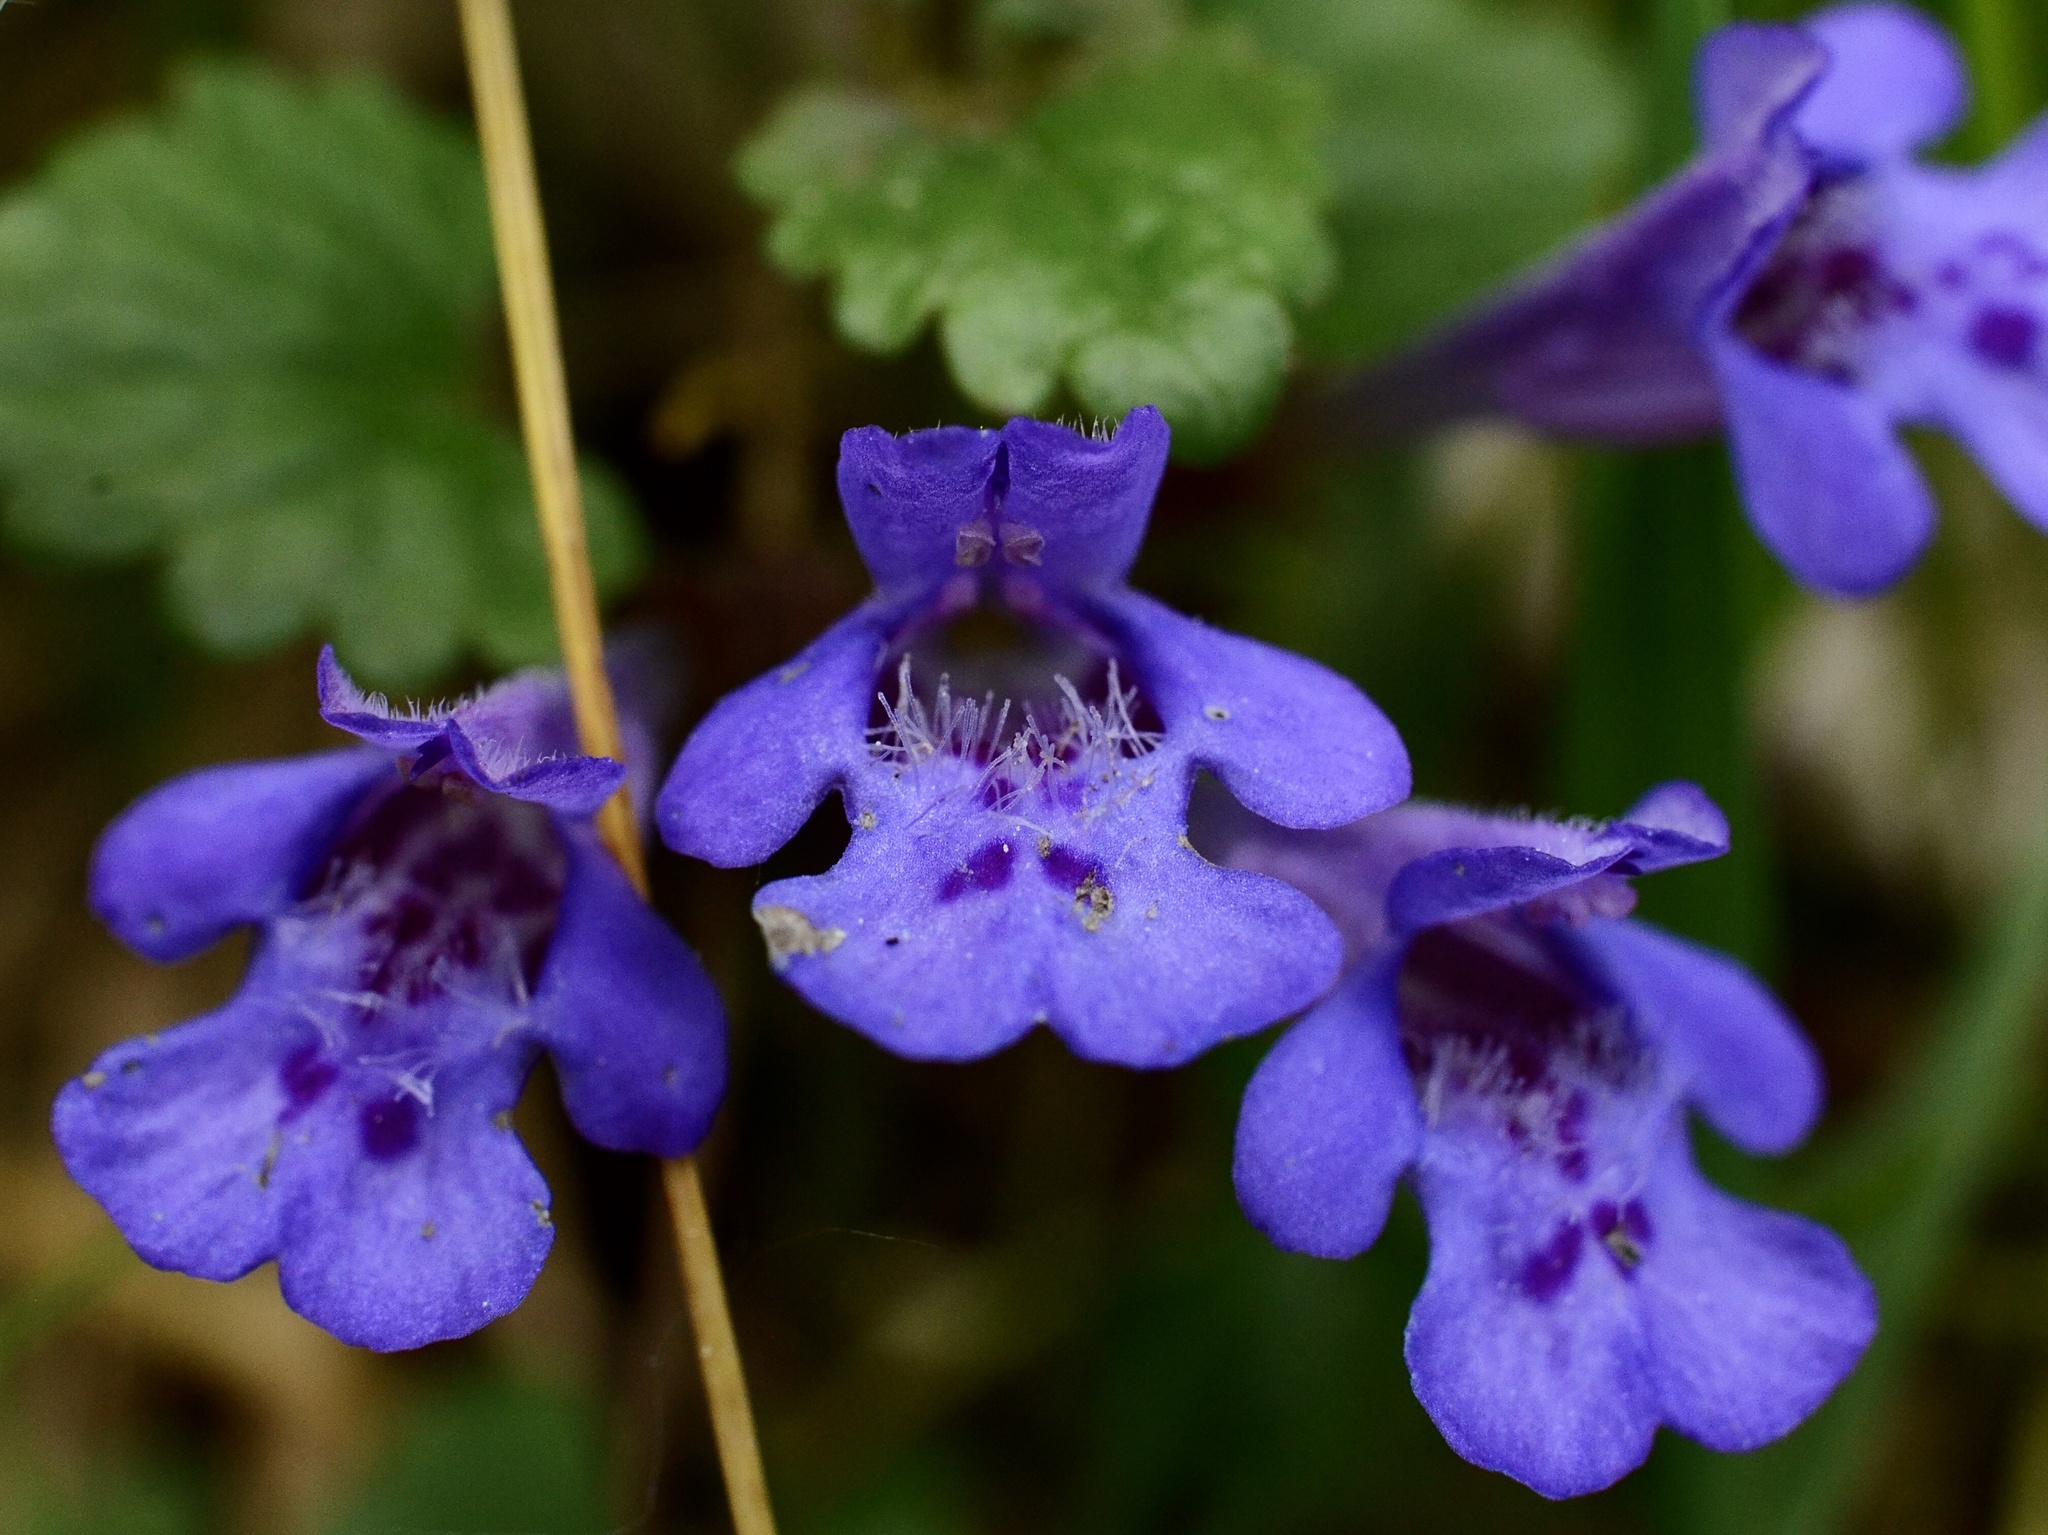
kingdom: Plantae
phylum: Tracheophyta
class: Magnoliopsida
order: Lamiales
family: Lamiaceae
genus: Glechoma
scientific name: Glechoma hederacea
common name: Ground ivy
